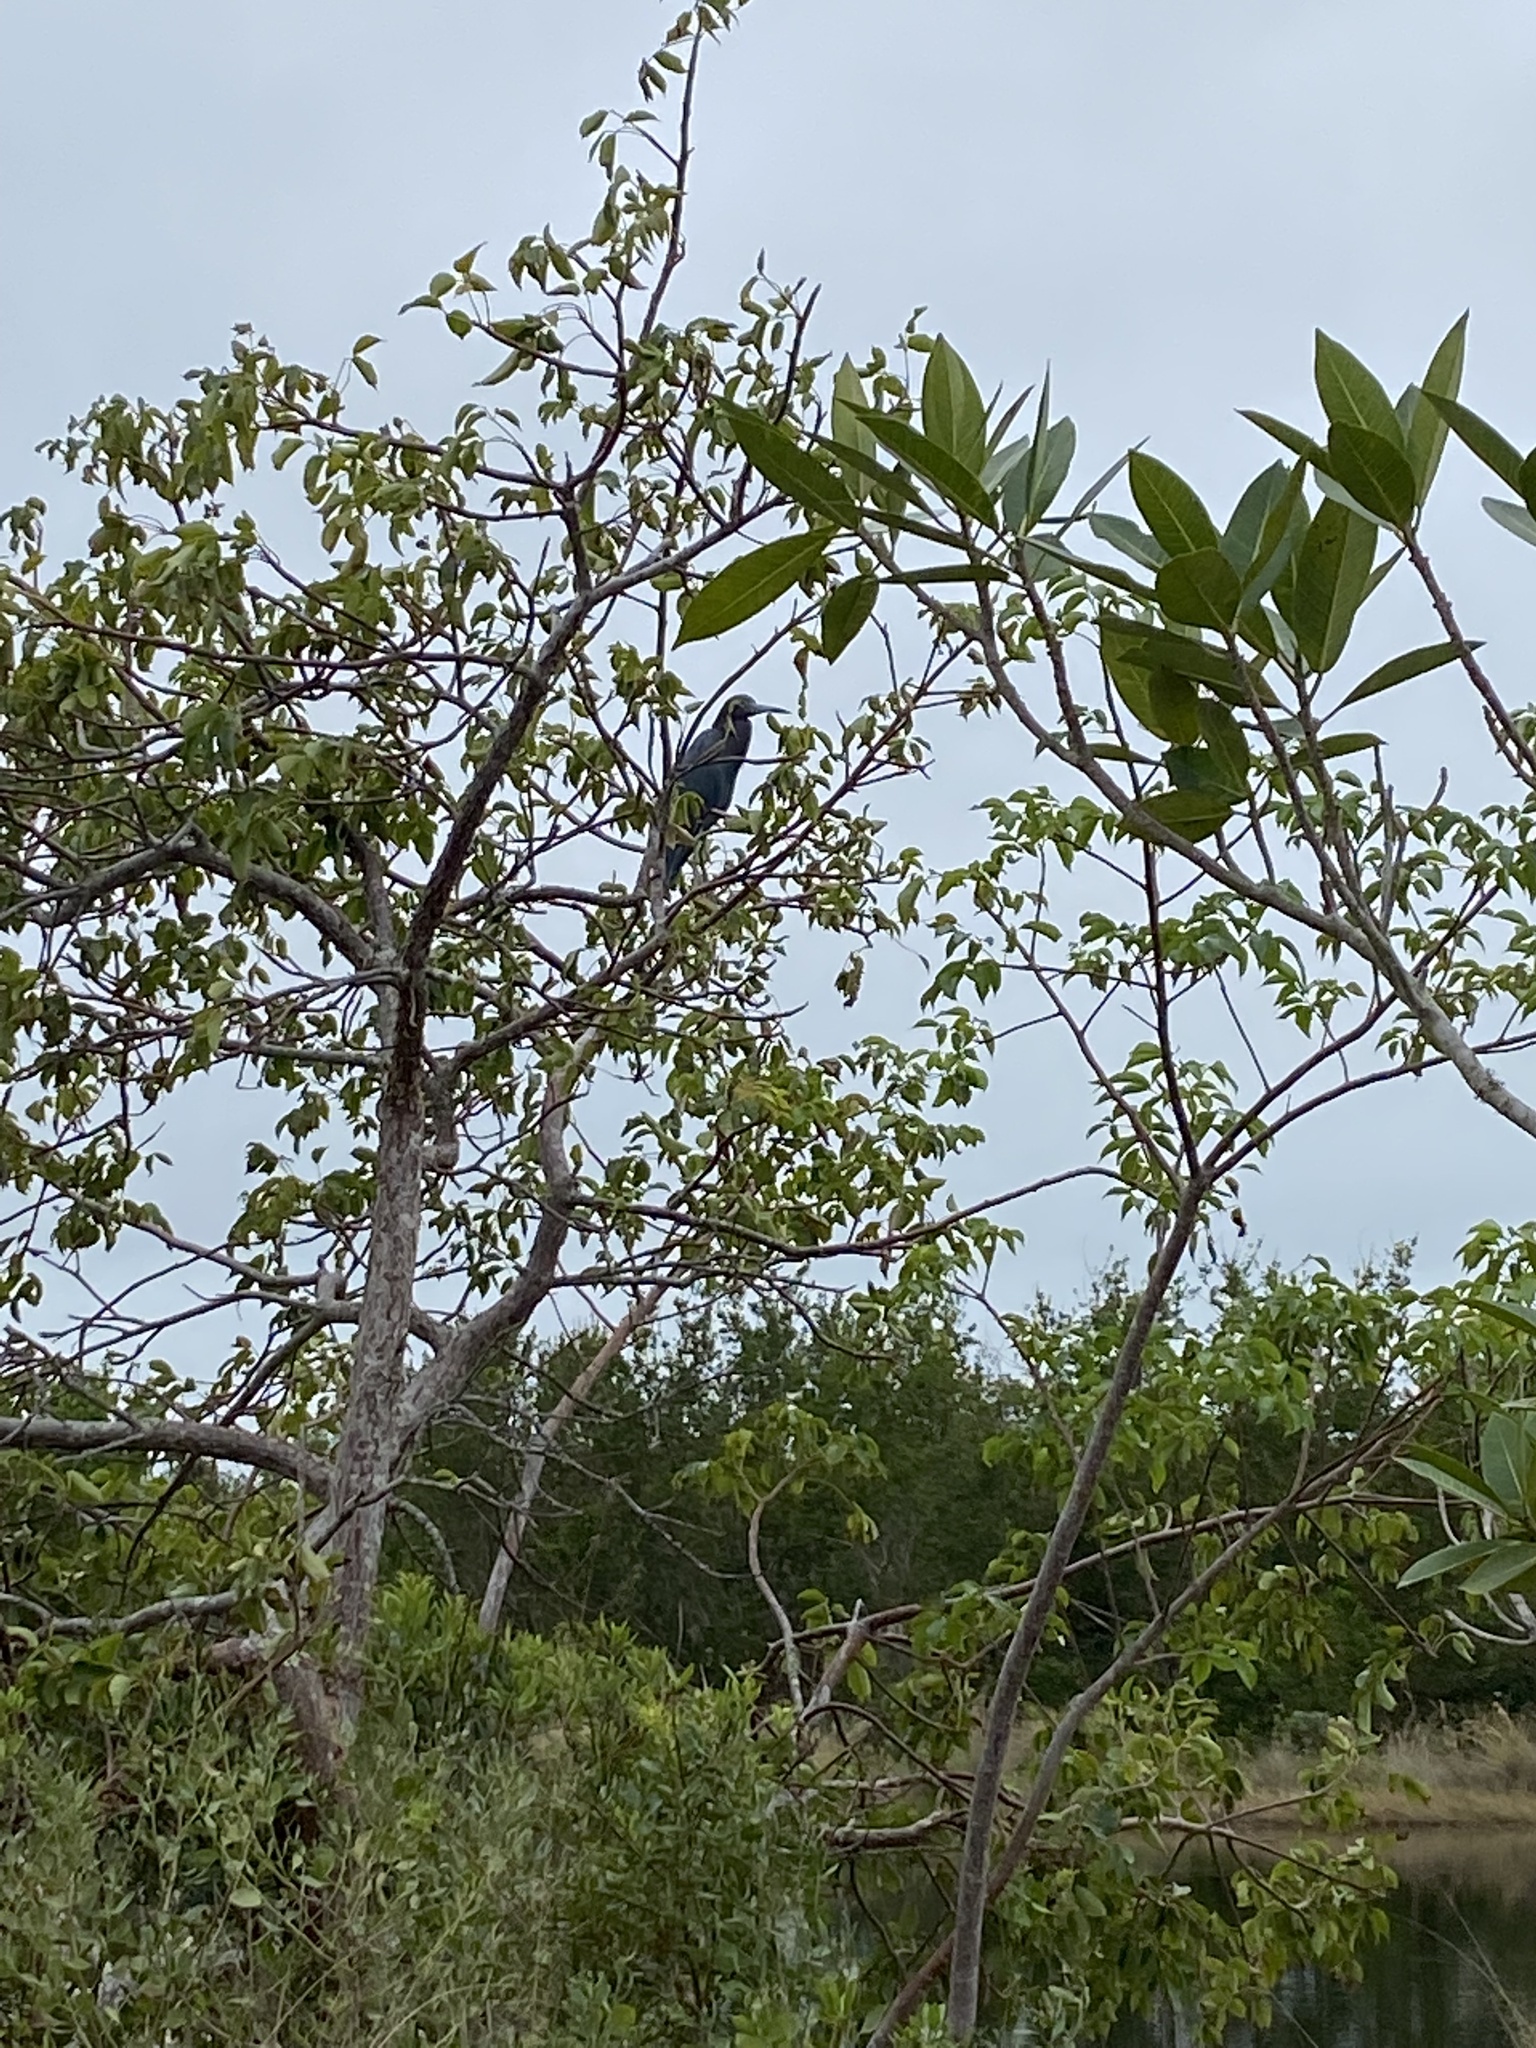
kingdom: Animalia
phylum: Chordata
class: Aves
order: Pelecaniformes
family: Ardeidae
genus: Egretta
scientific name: Egretta caerulea
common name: Little blue heron
